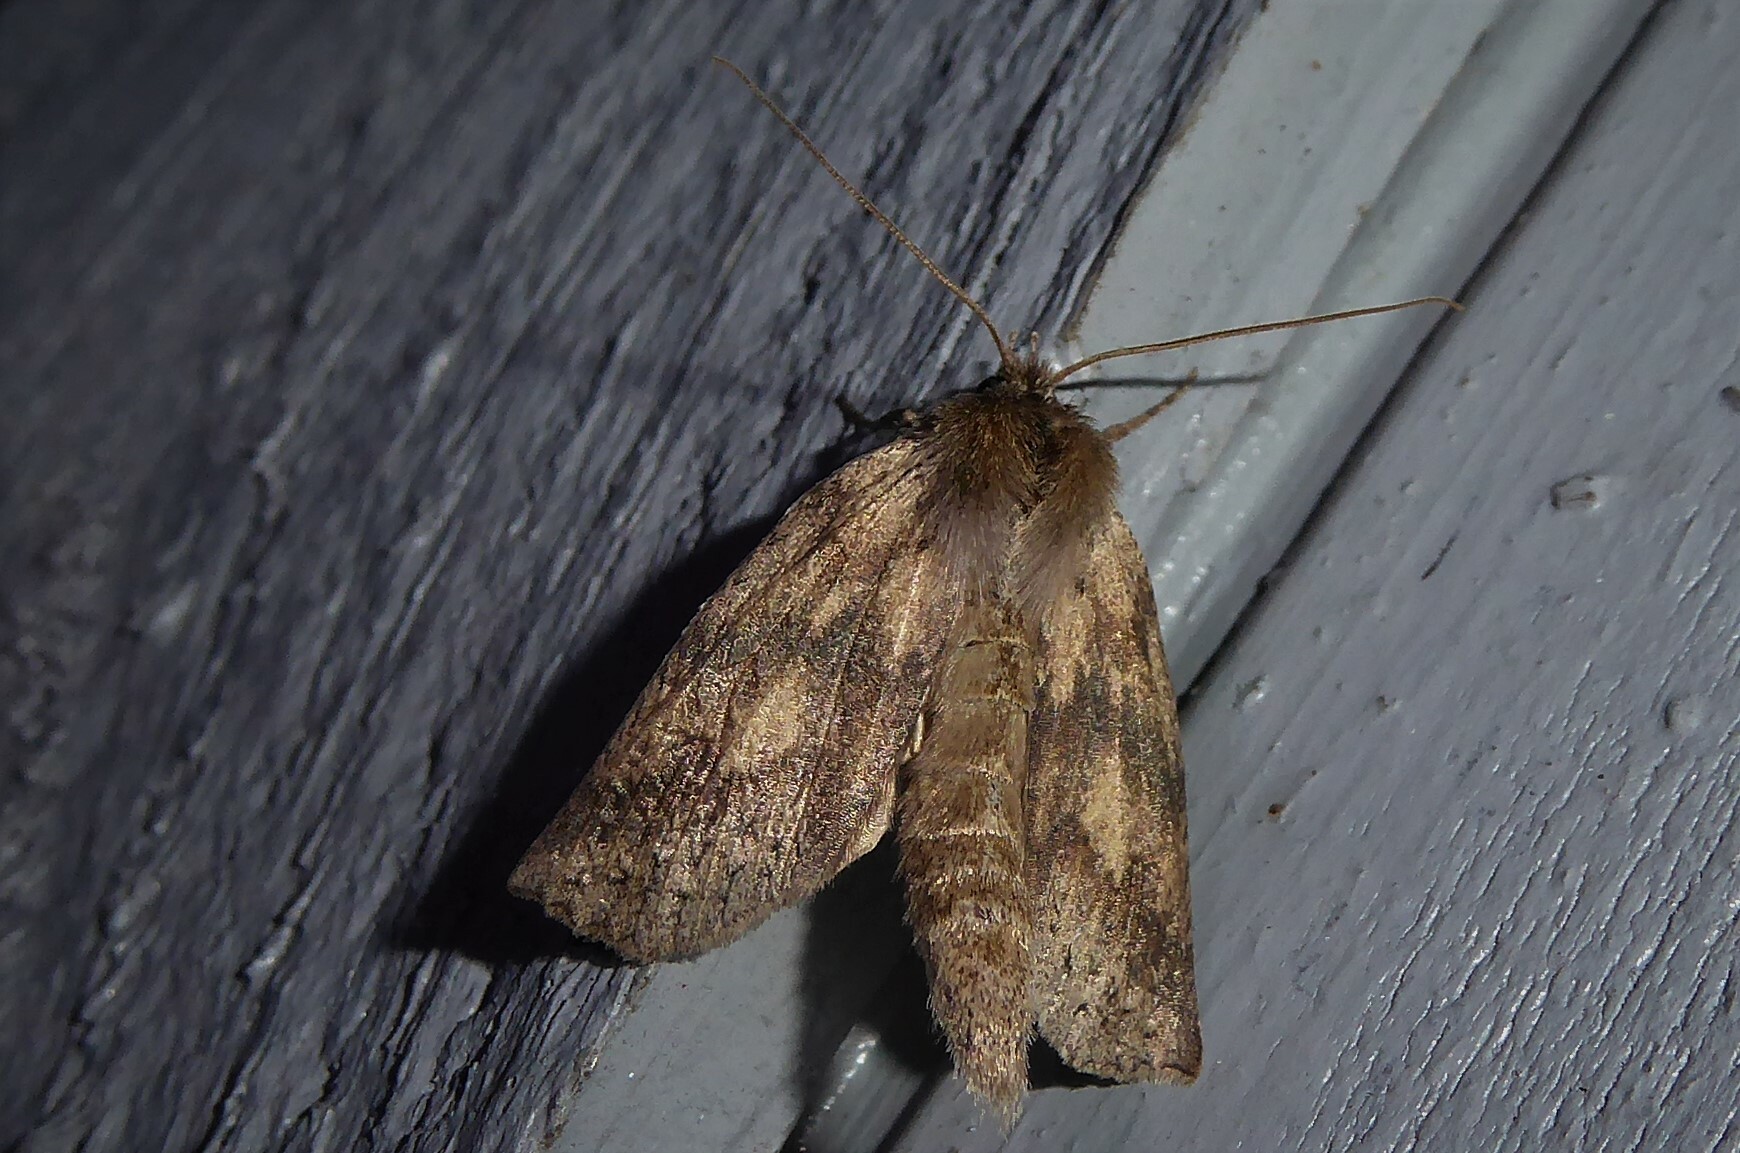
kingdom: Animalia
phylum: Arthropoda
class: Insecta
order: Lepidoptera
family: Geometridae
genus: Declana
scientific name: Declana leptomera
